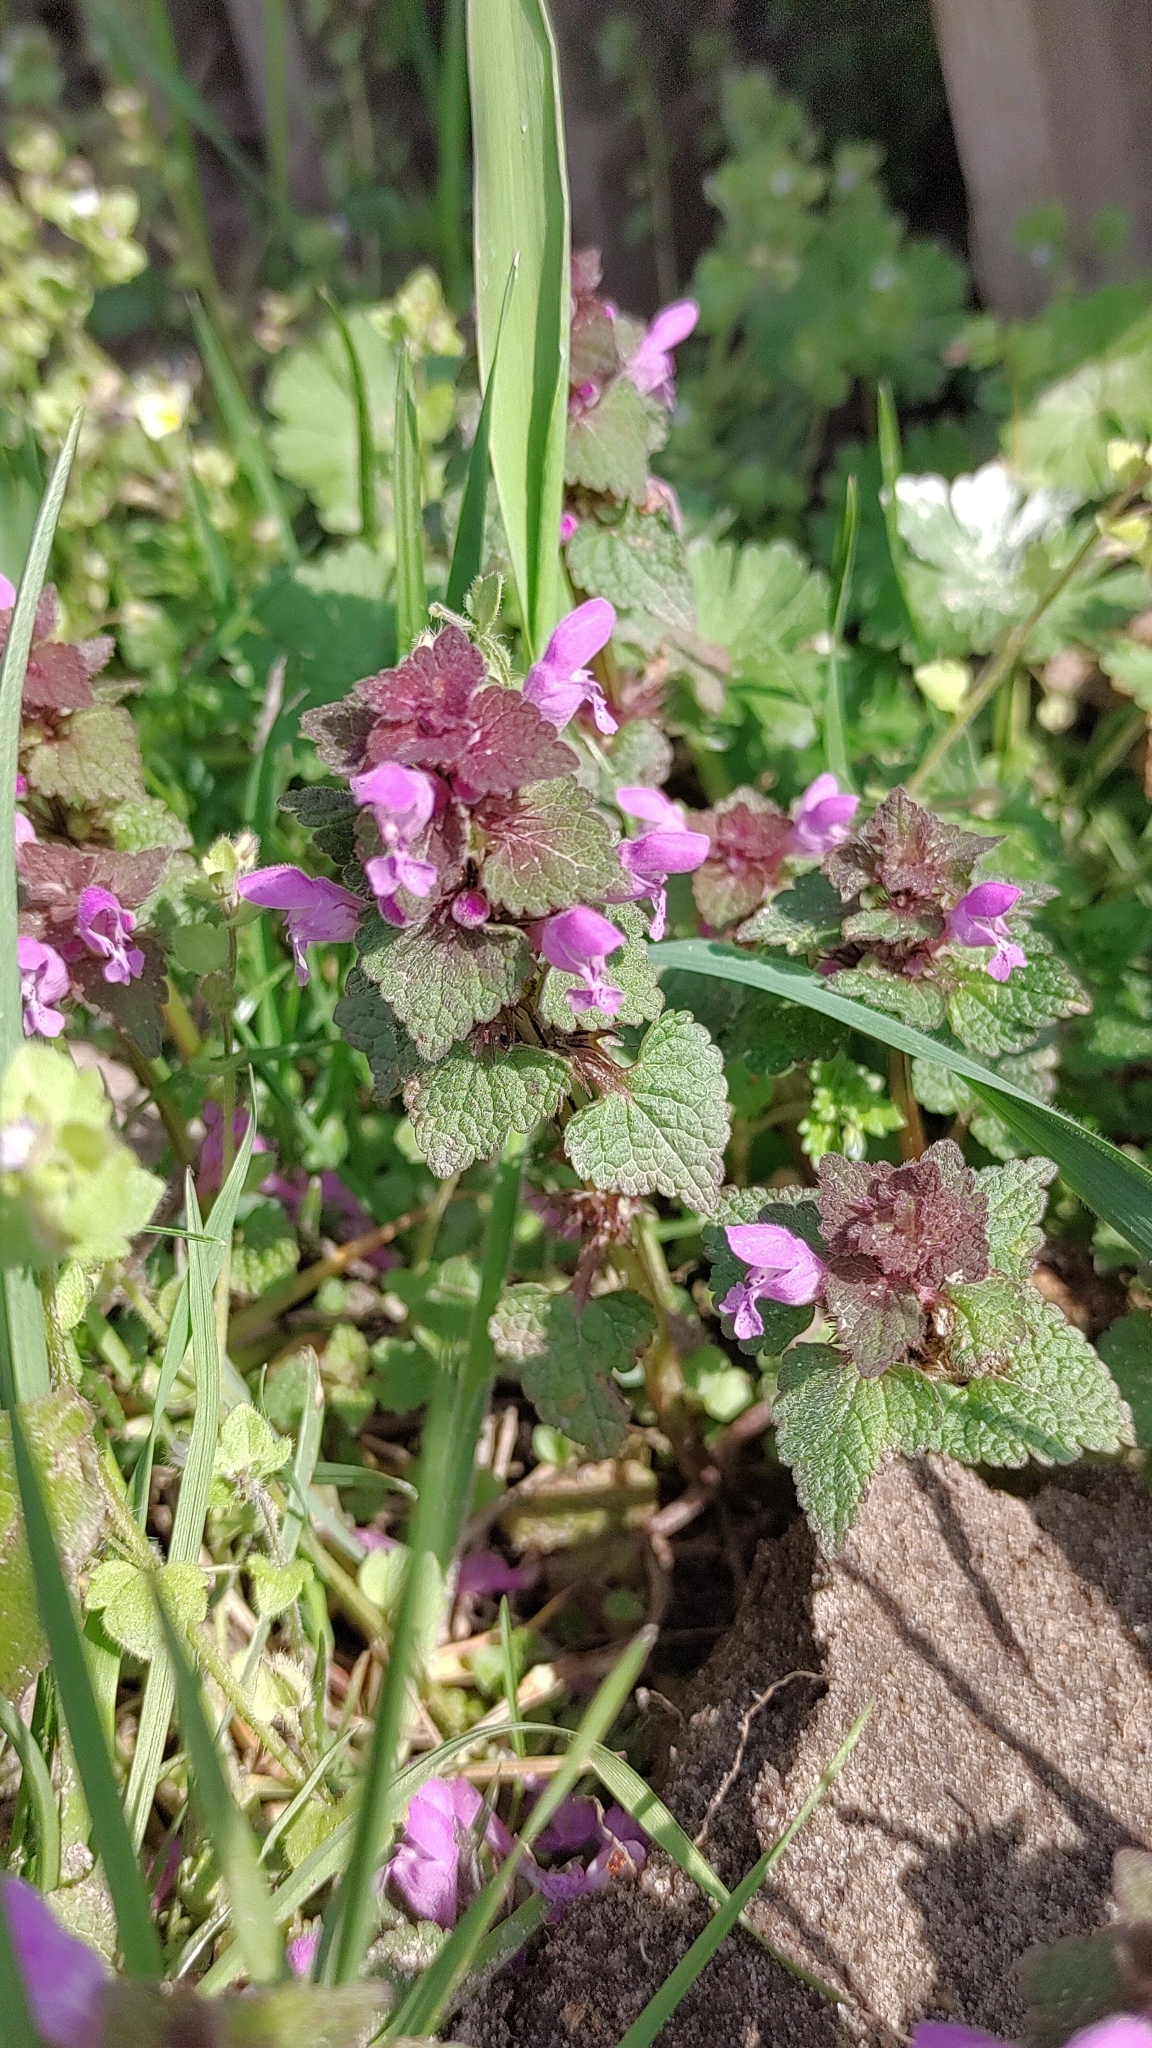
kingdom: Plantae
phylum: Tracheophyta
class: Magnoliopsida
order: Lamiales
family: Lamiaceae
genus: Lamium
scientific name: Lamium purpureum
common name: Red dead-nettle
